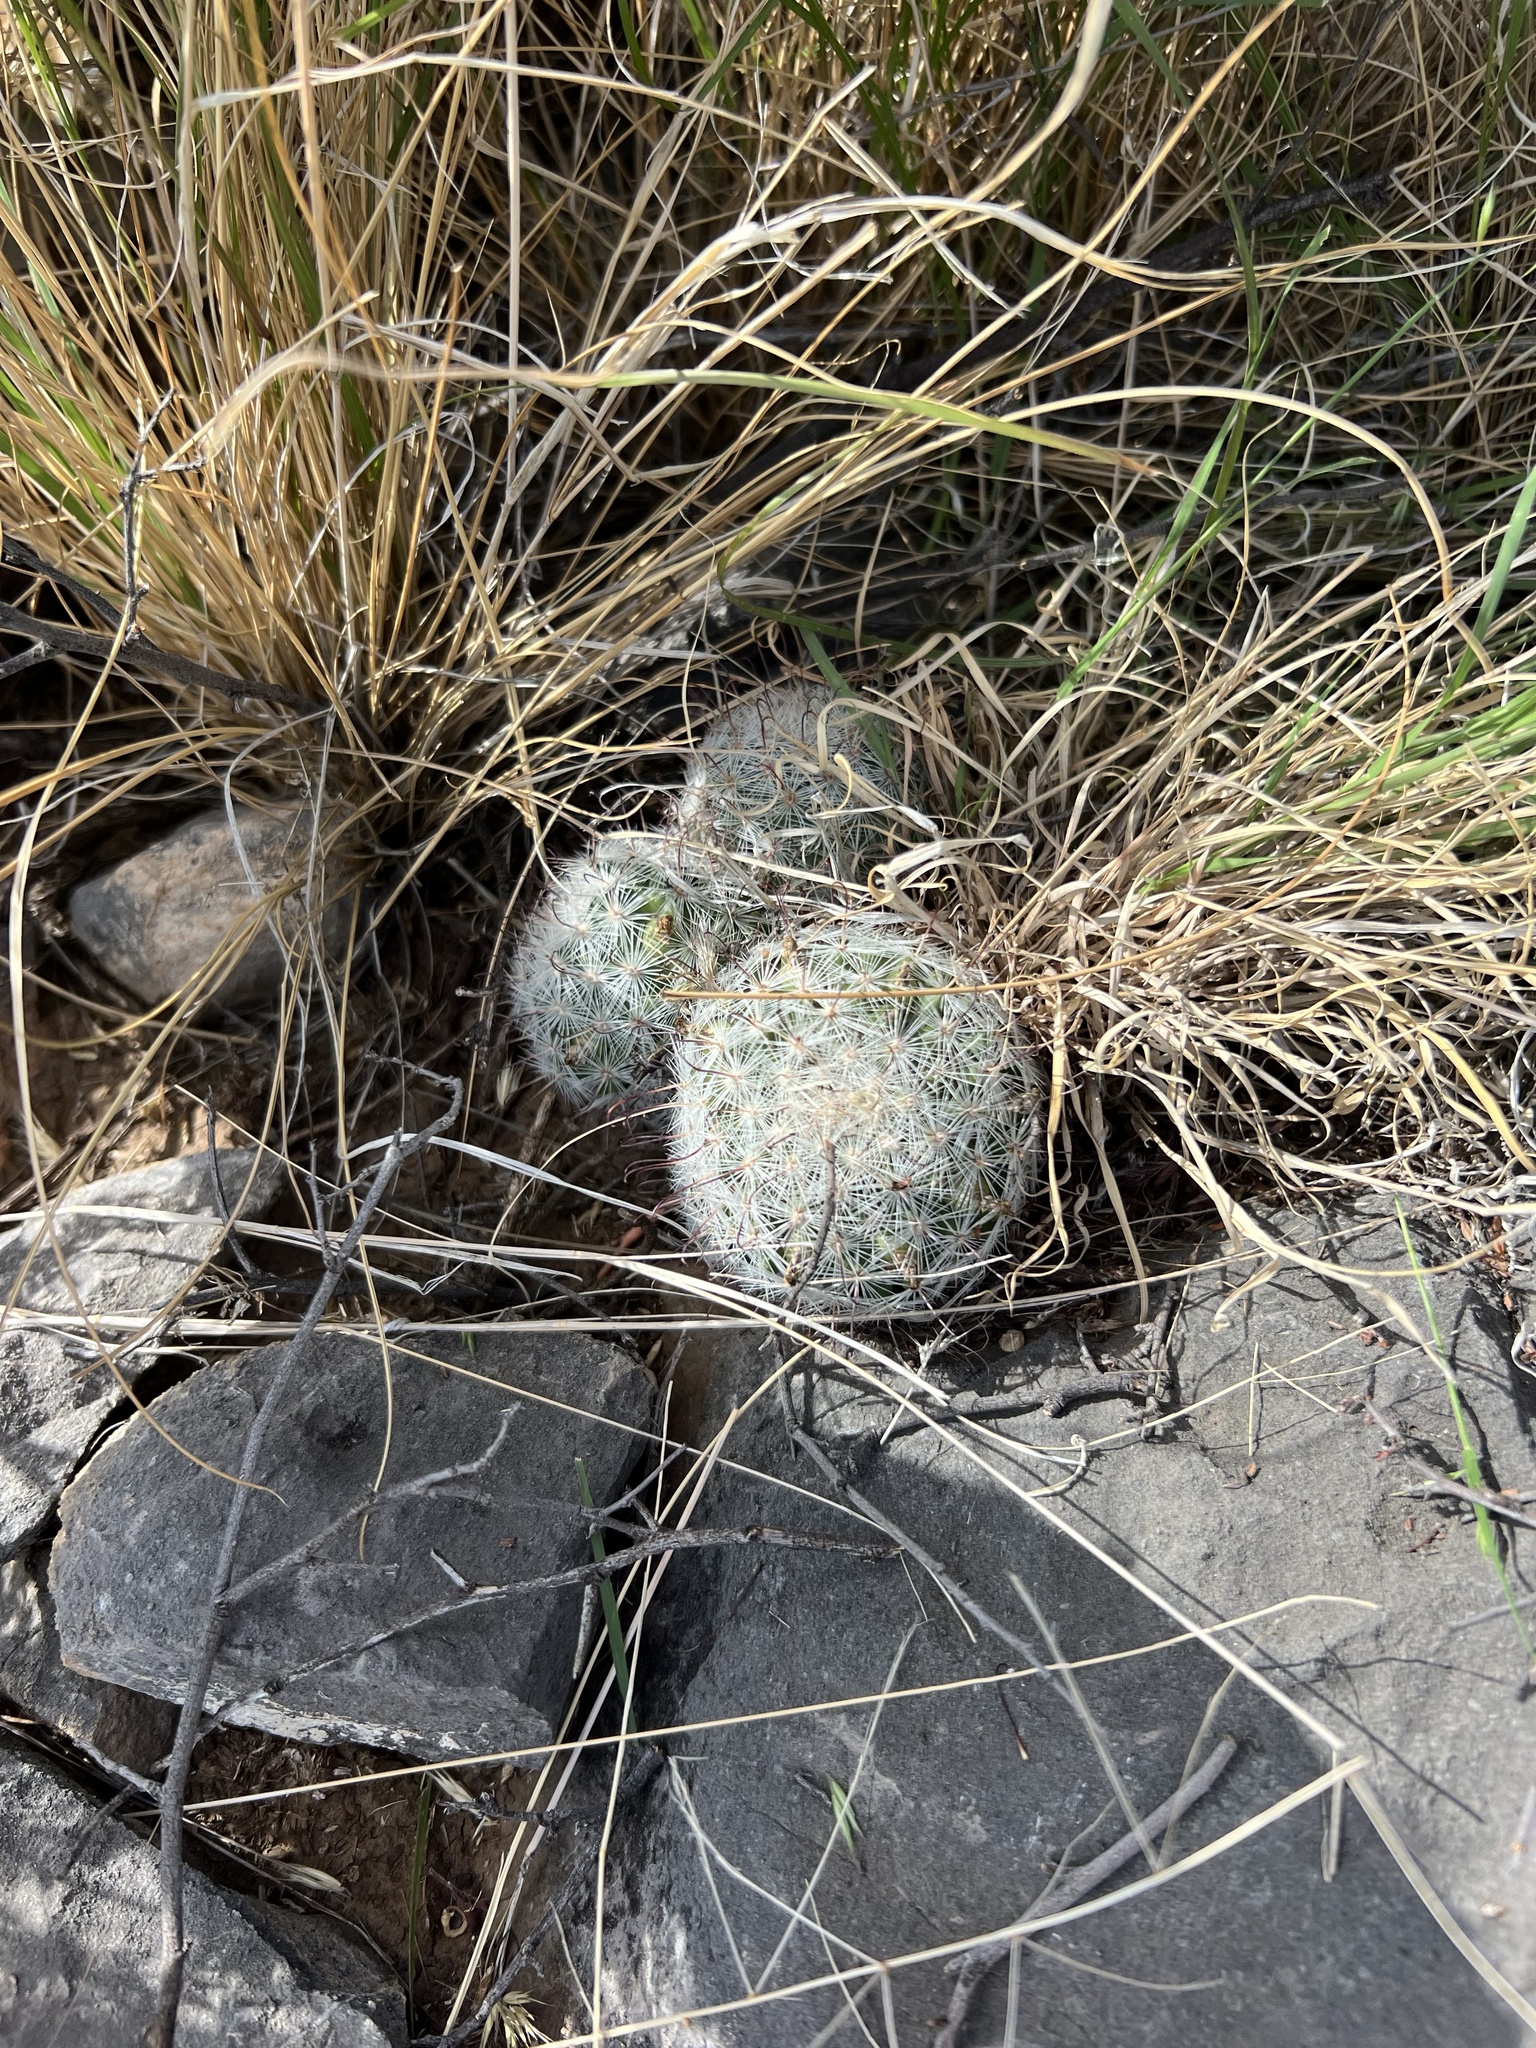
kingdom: Plantae
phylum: Tracheophyta
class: Magnoliopsida
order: Caryophyllales
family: Cactaceae
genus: Cochemiea
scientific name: Cochemiea grahamii
